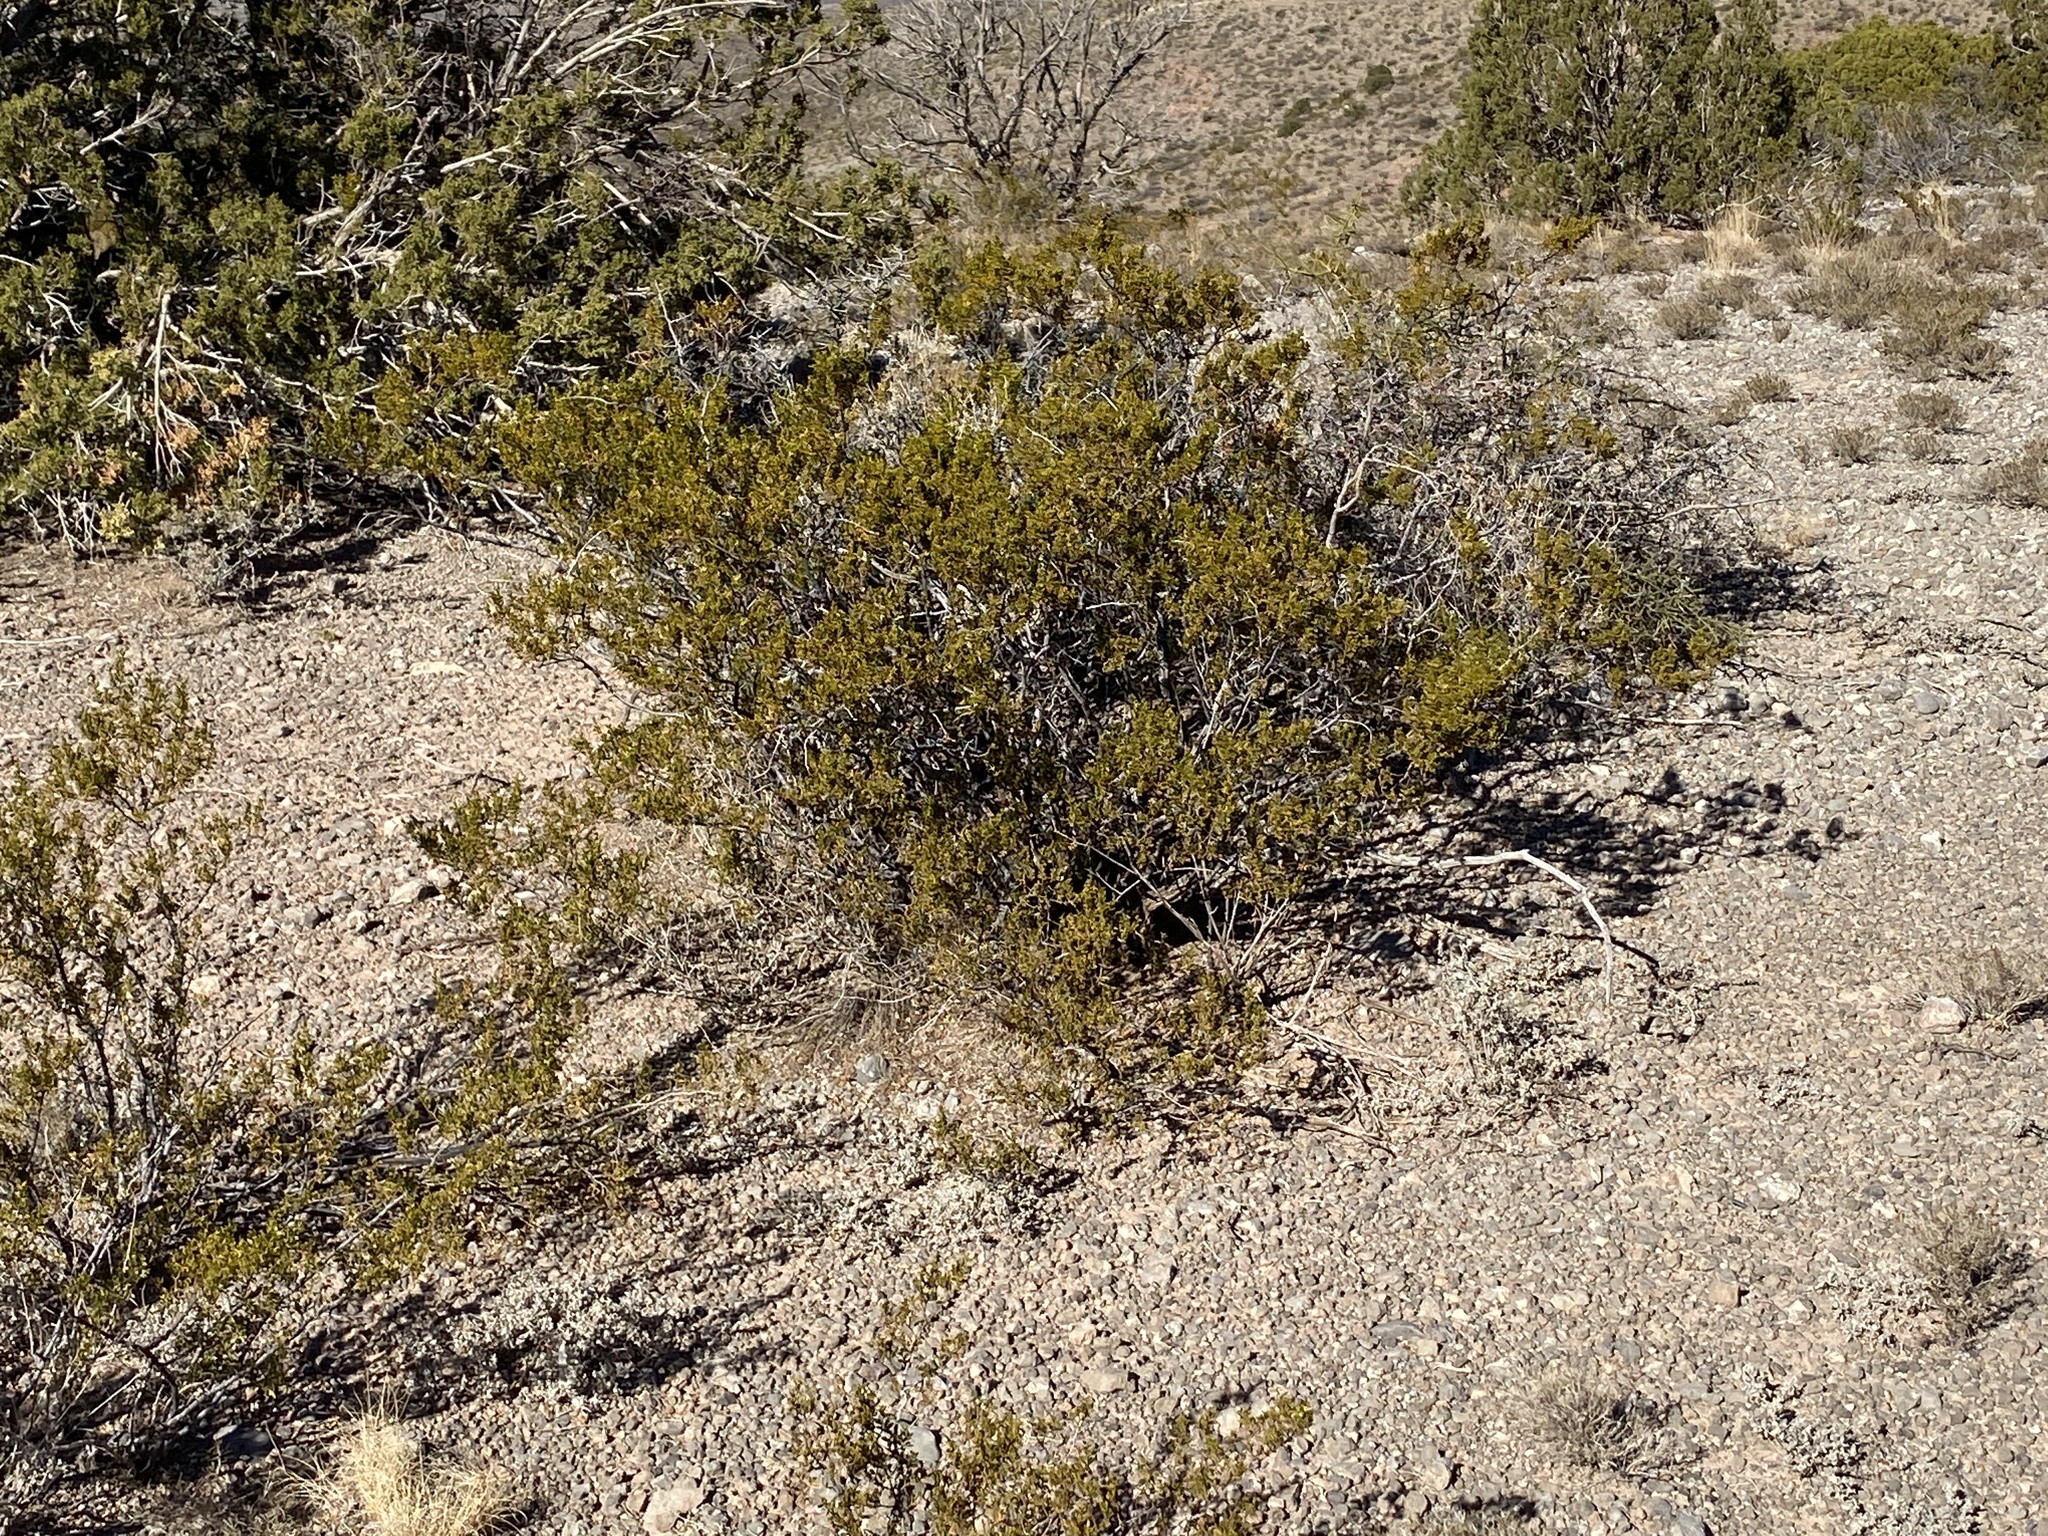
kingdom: Plantae
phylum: Tracheophyta
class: Magnoliopsida
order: Zygophyllales
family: Zygophyllaceae
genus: Larrea
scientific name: Larrea tridentata
